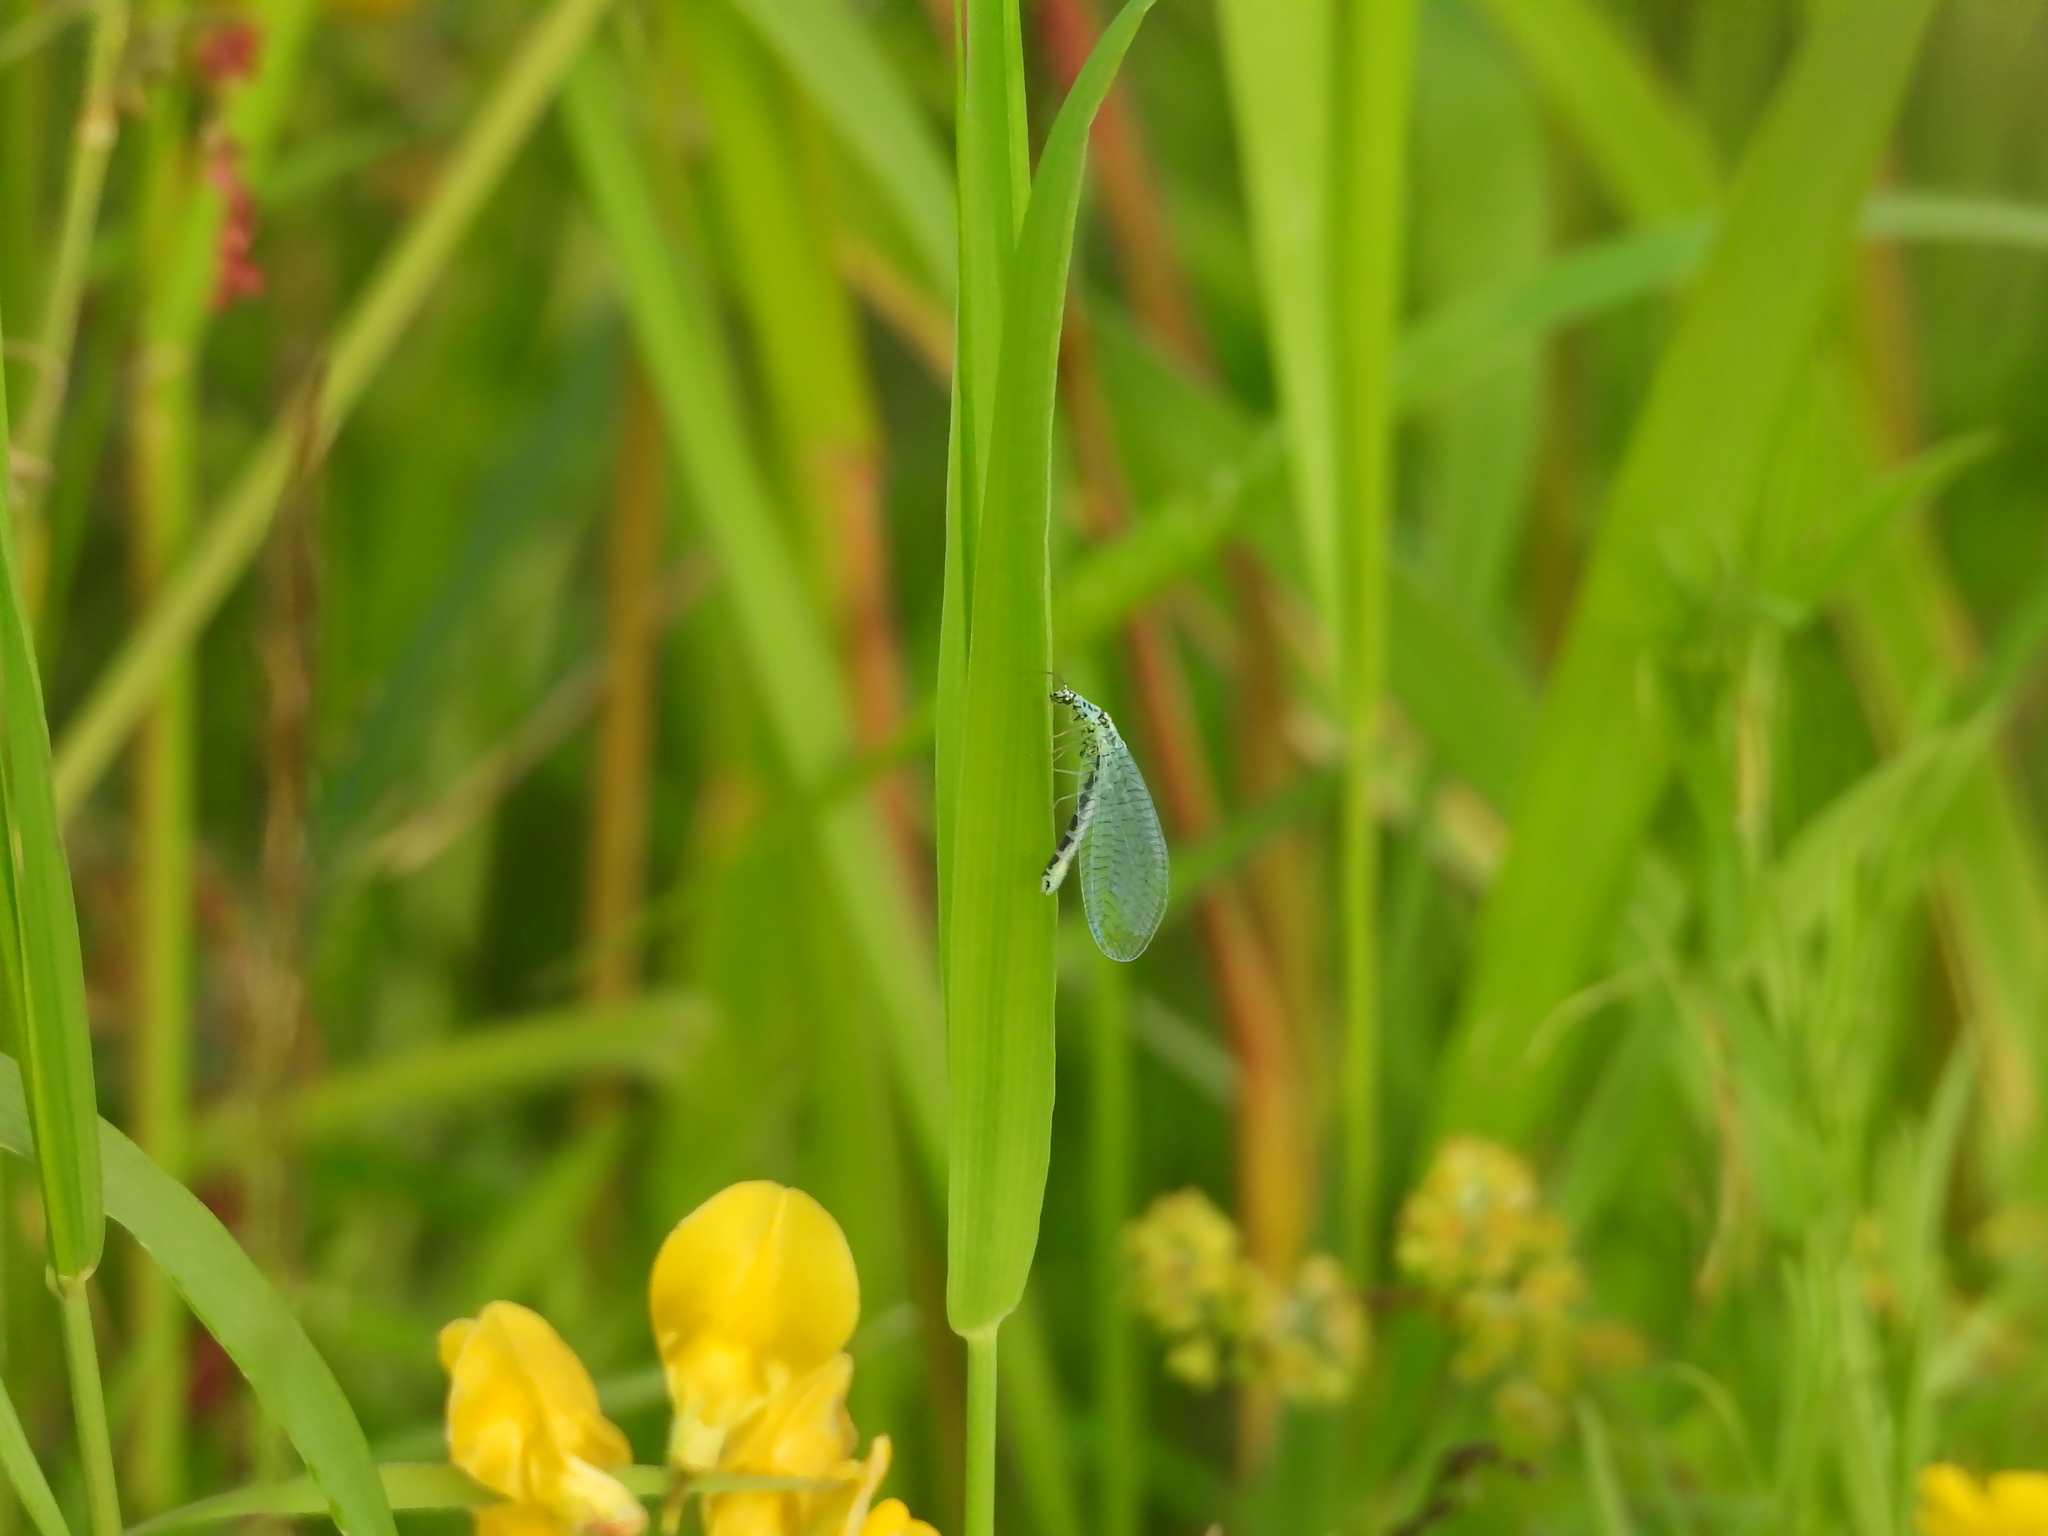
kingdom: Animalia
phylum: Arthropoda
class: Insecta
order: Neuroptera
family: Chrysopidae
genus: Chrysopa
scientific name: Chrysopa perla
